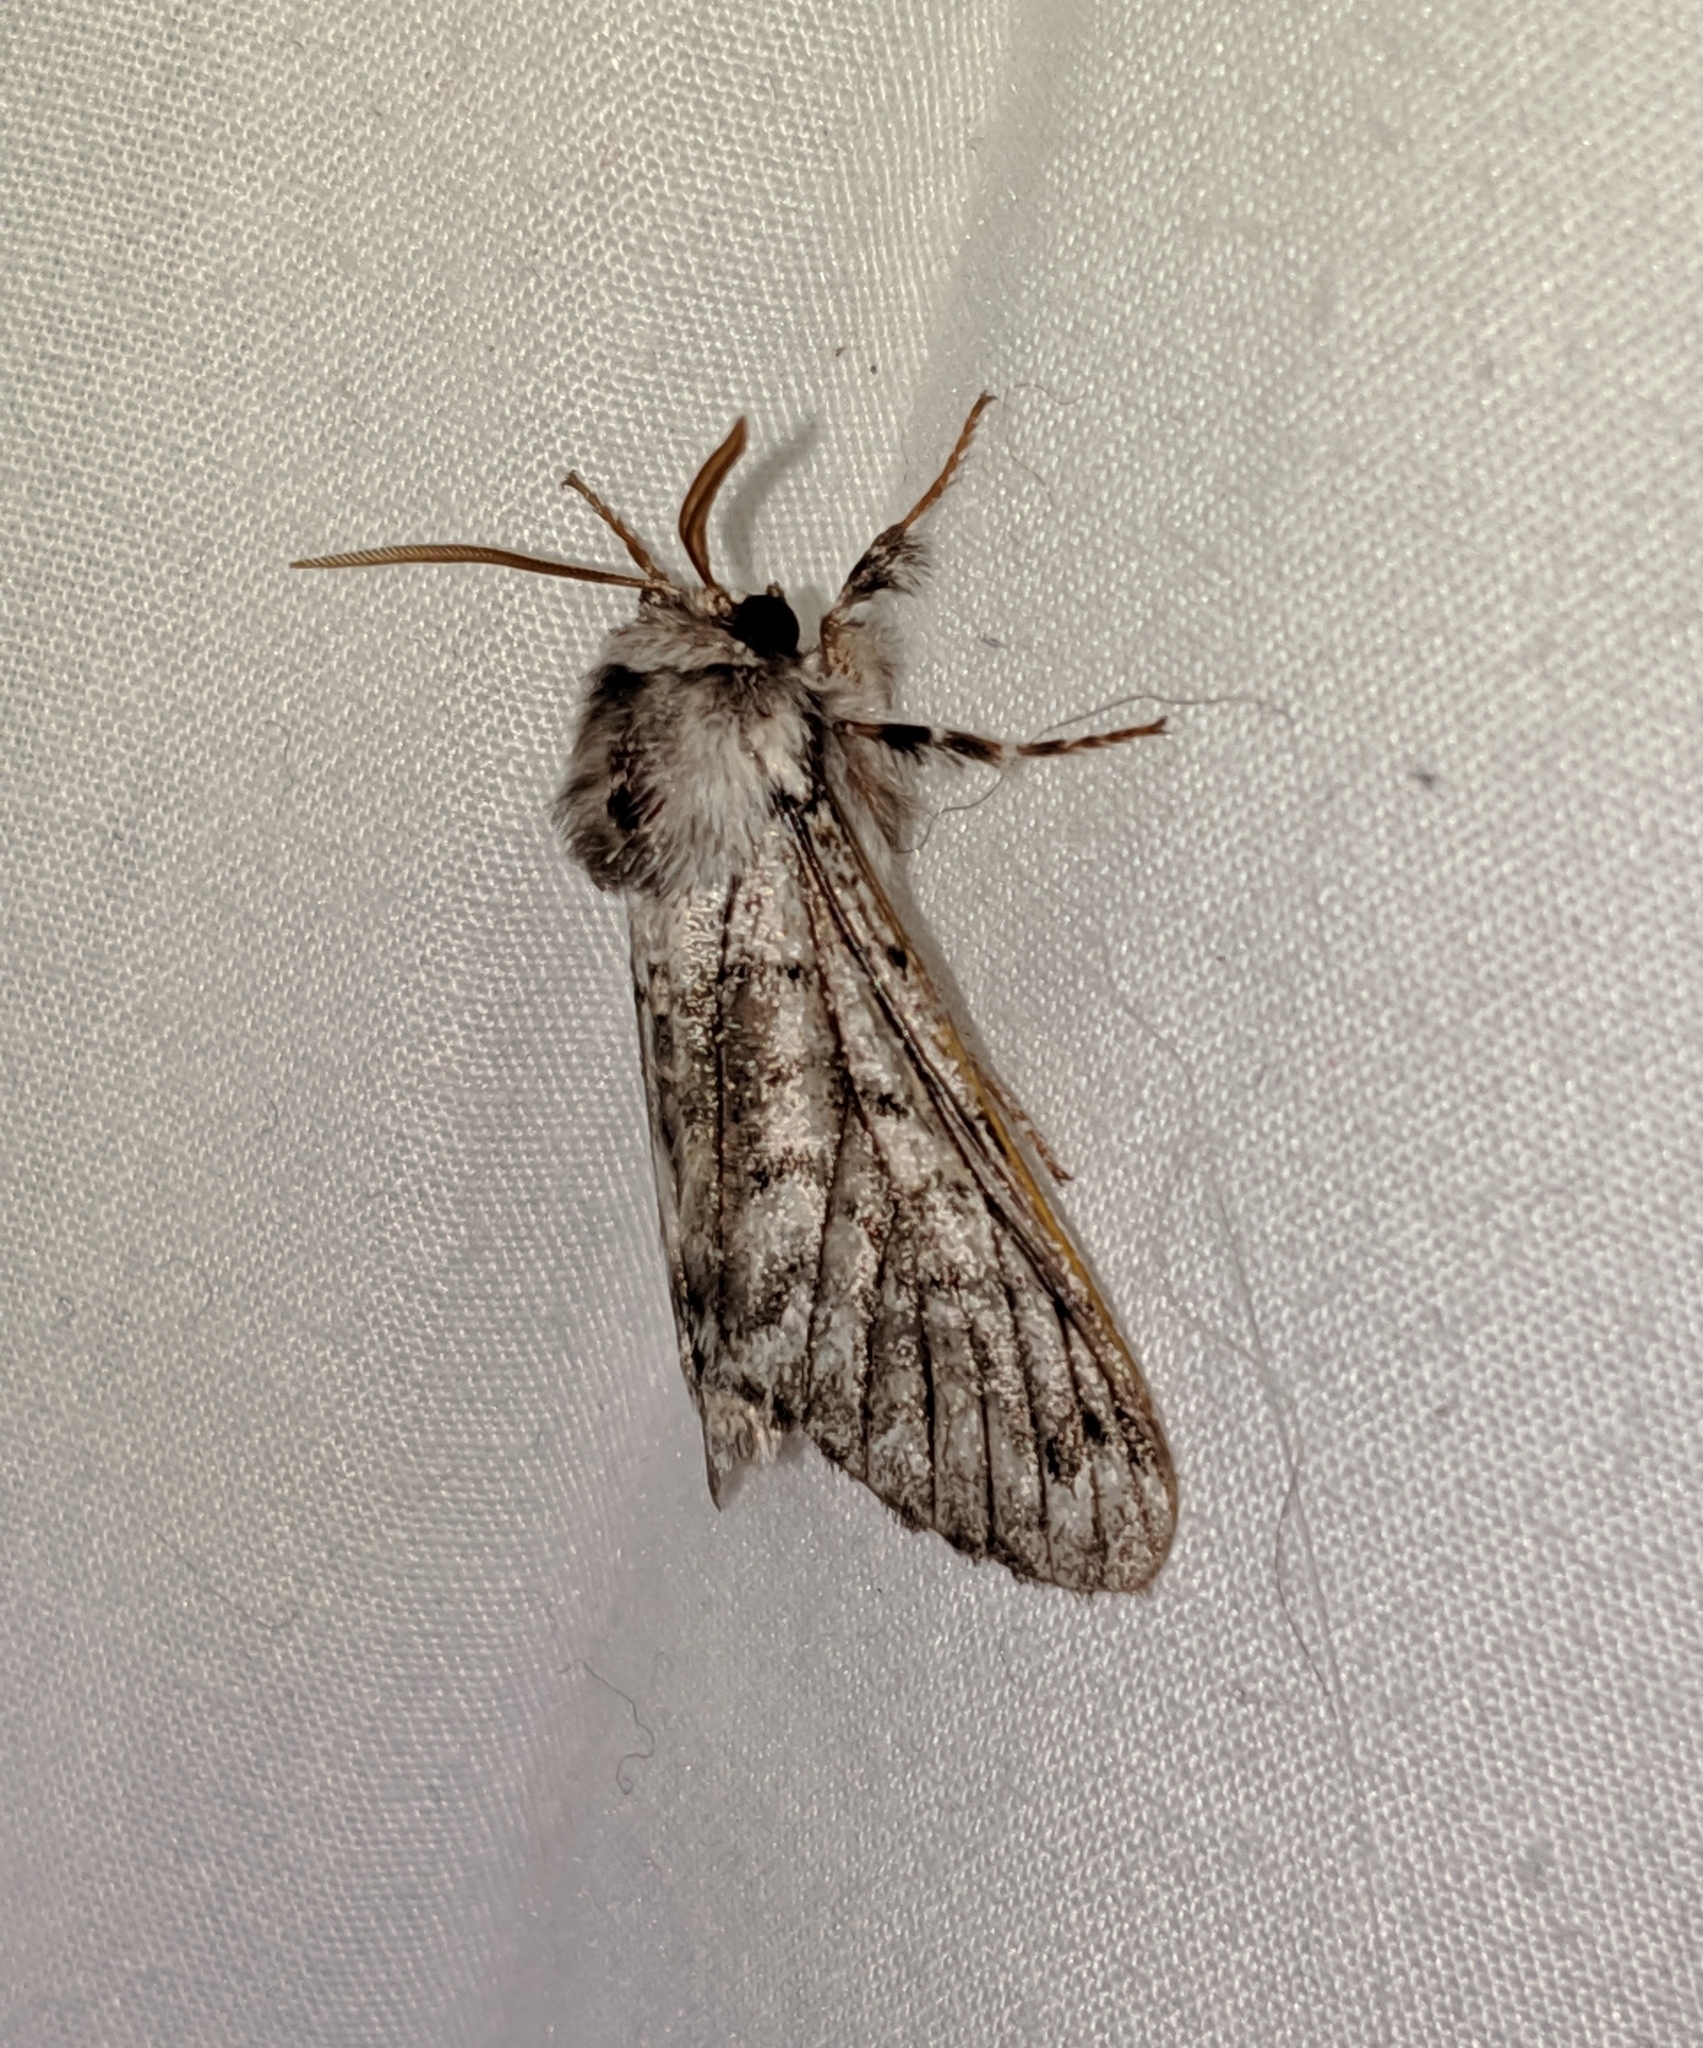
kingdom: Animalia
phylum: Arthropoda
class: Insecta
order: Lepidoptera
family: Noctuidae
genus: Panthea
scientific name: Panthea virginarius
